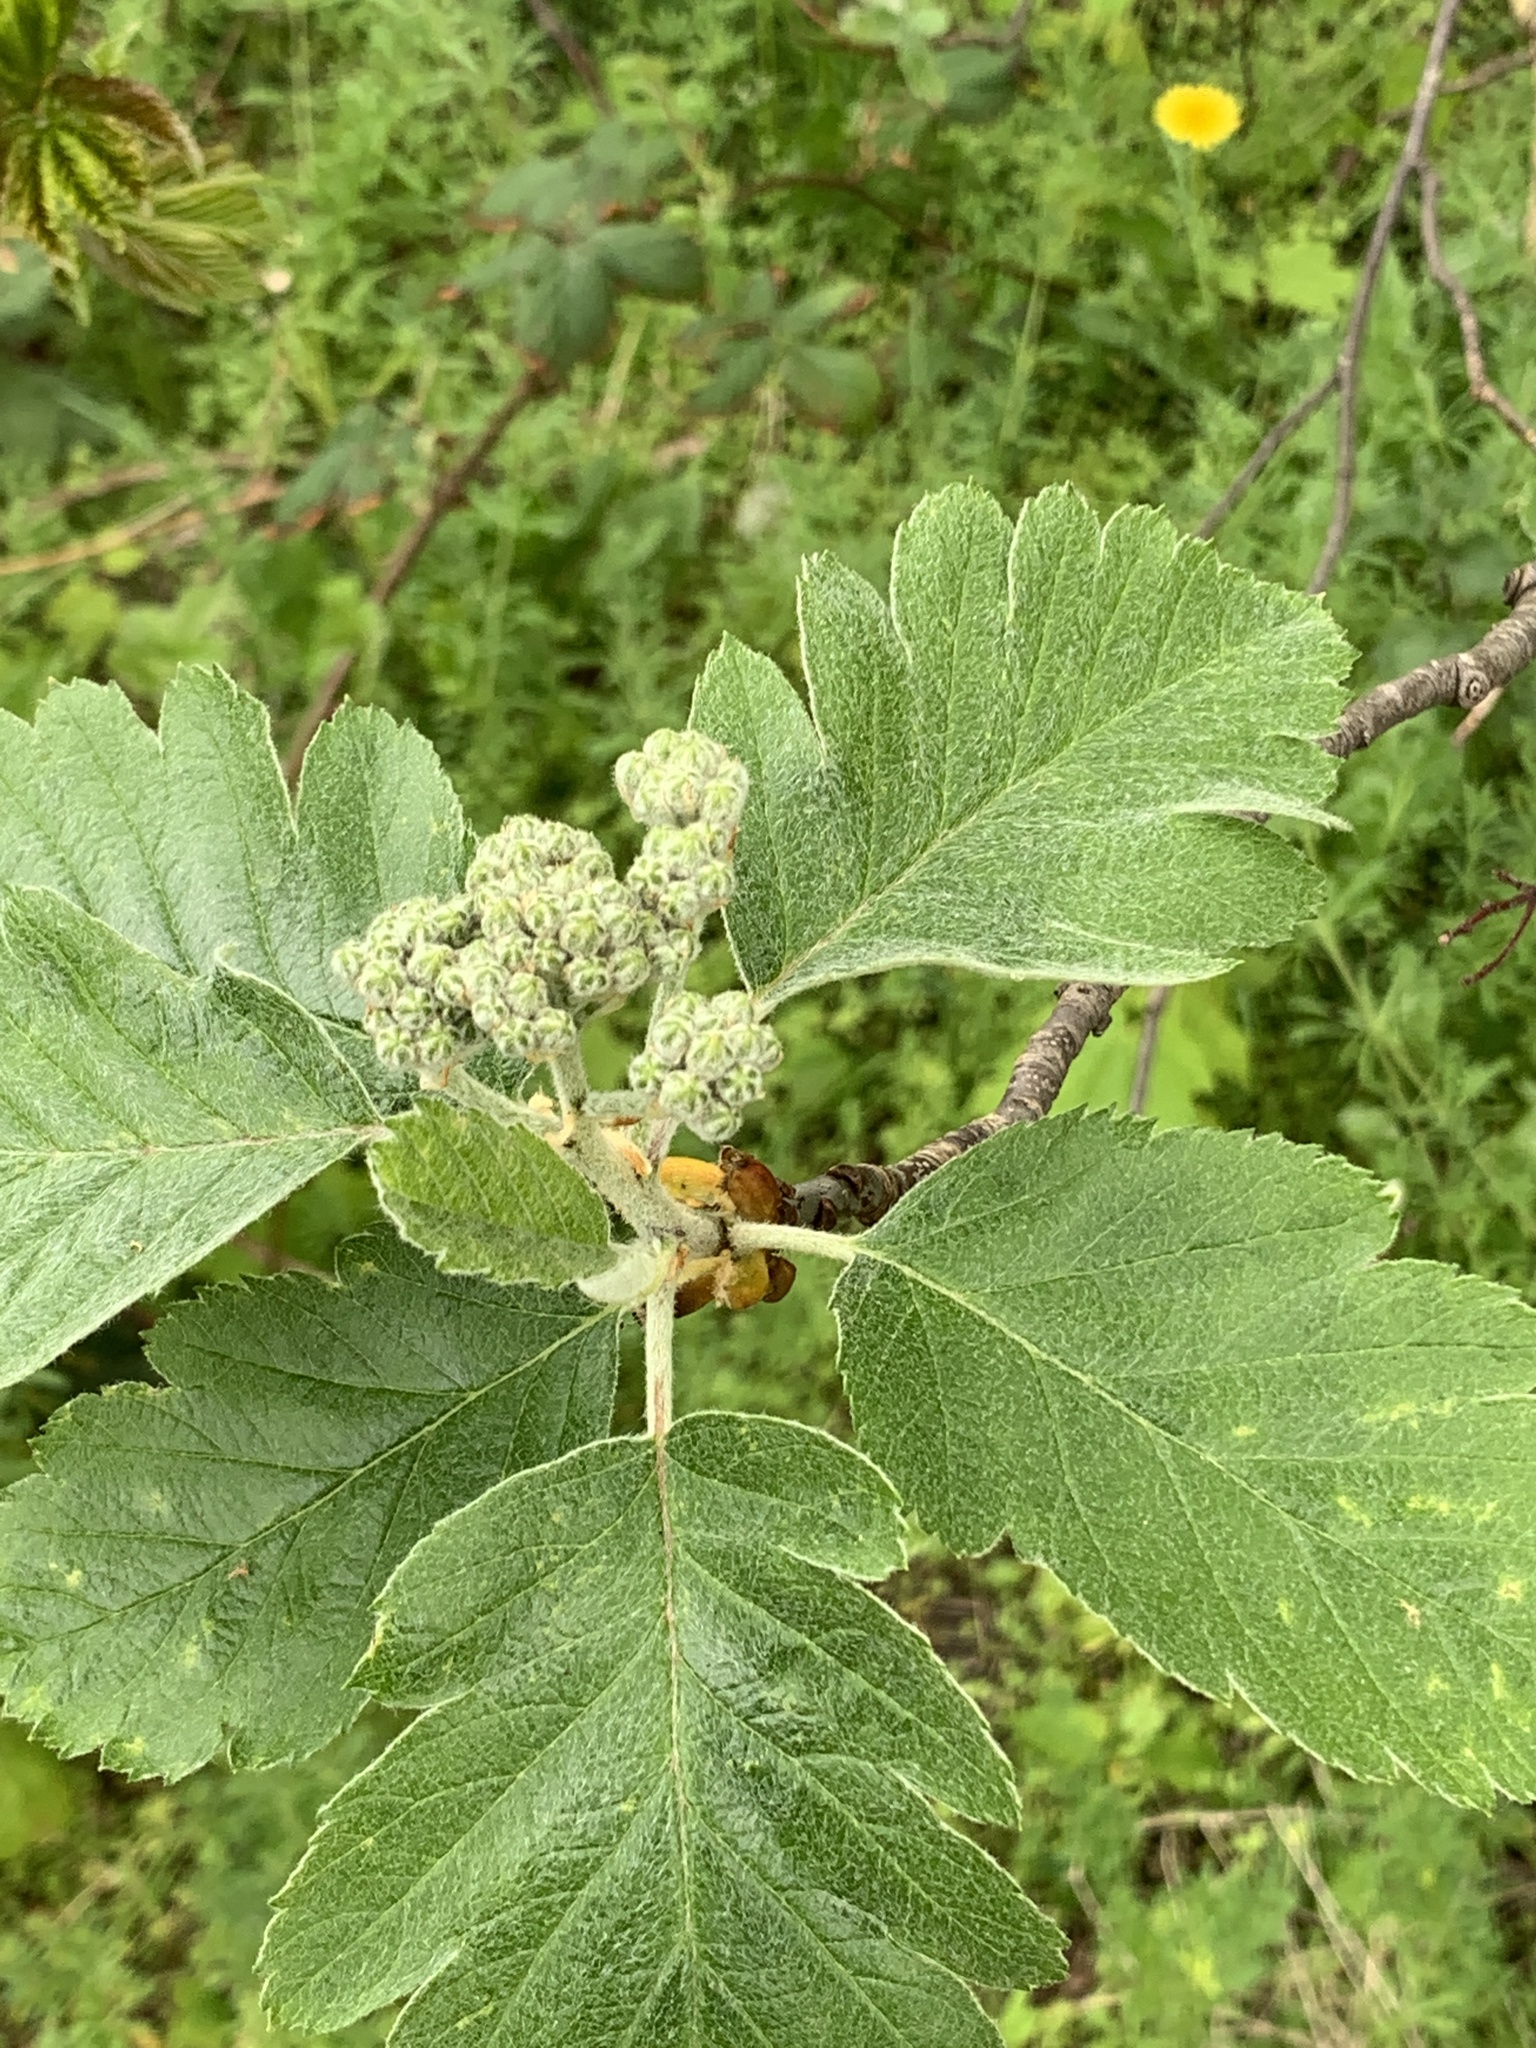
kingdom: Plantae
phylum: Tracheophyta
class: Magnoliopsida
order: Rosales
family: Rosaceae
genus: Scandosorbus
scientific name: Scandosorbus intermedia
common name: Swedish whitebeam
